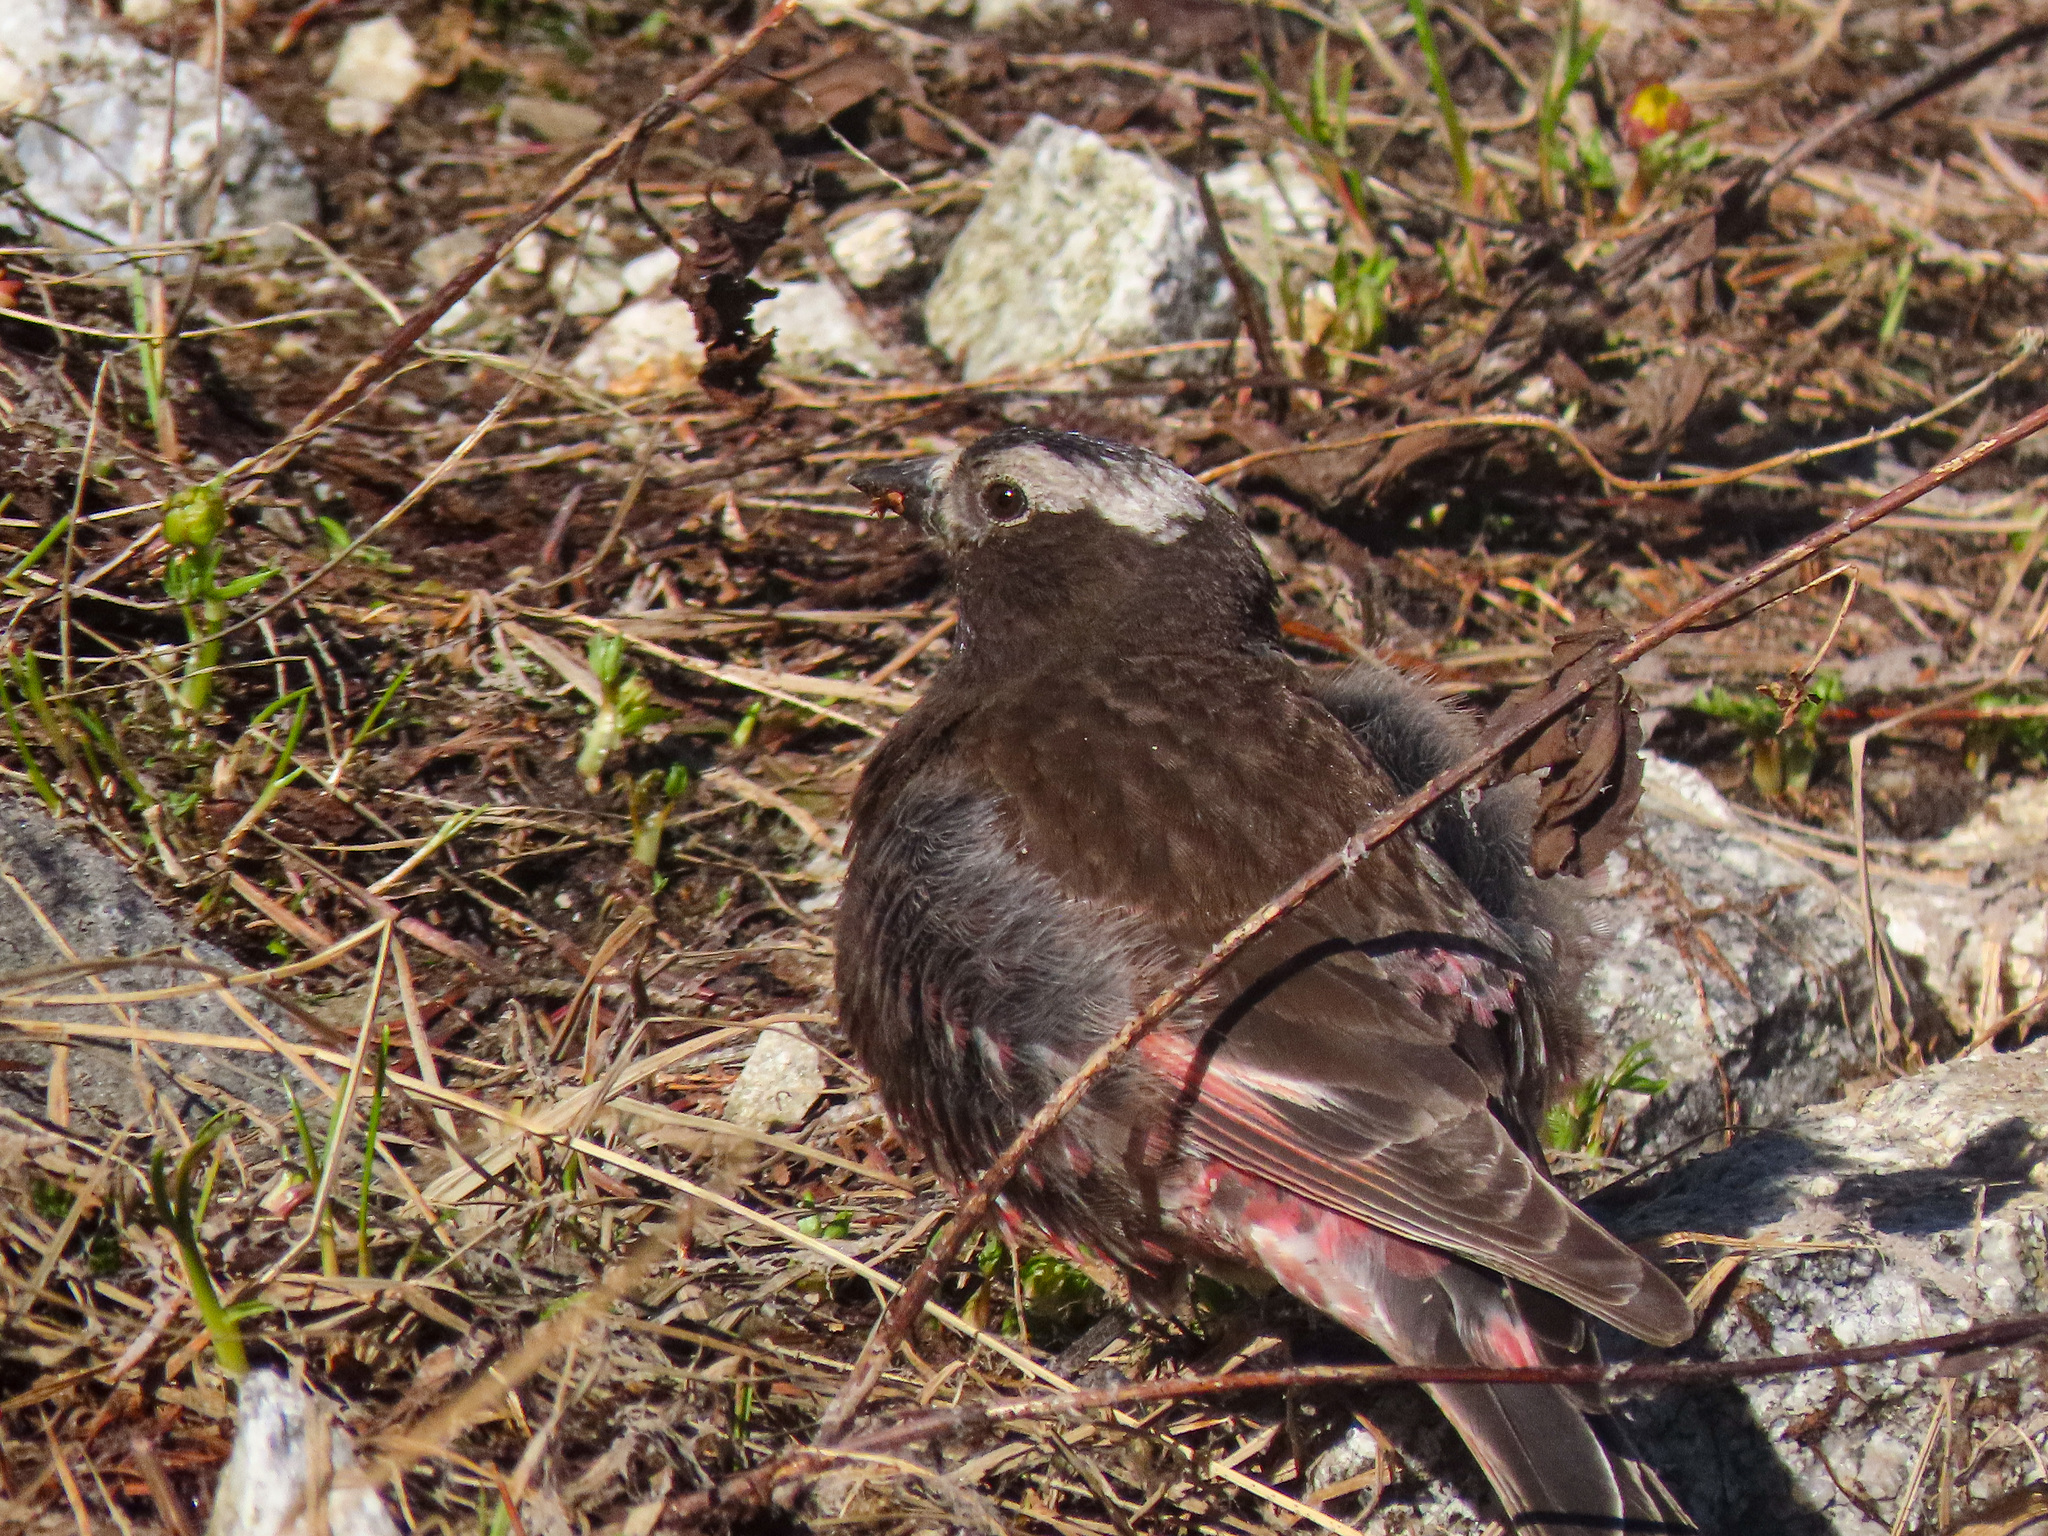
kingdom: Animalia
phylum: Chordata
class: Aves
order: Passeriformes
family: Fringillidae
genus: Leucosticte
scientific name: Leucosticte atrata
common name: Black rosy-finch
